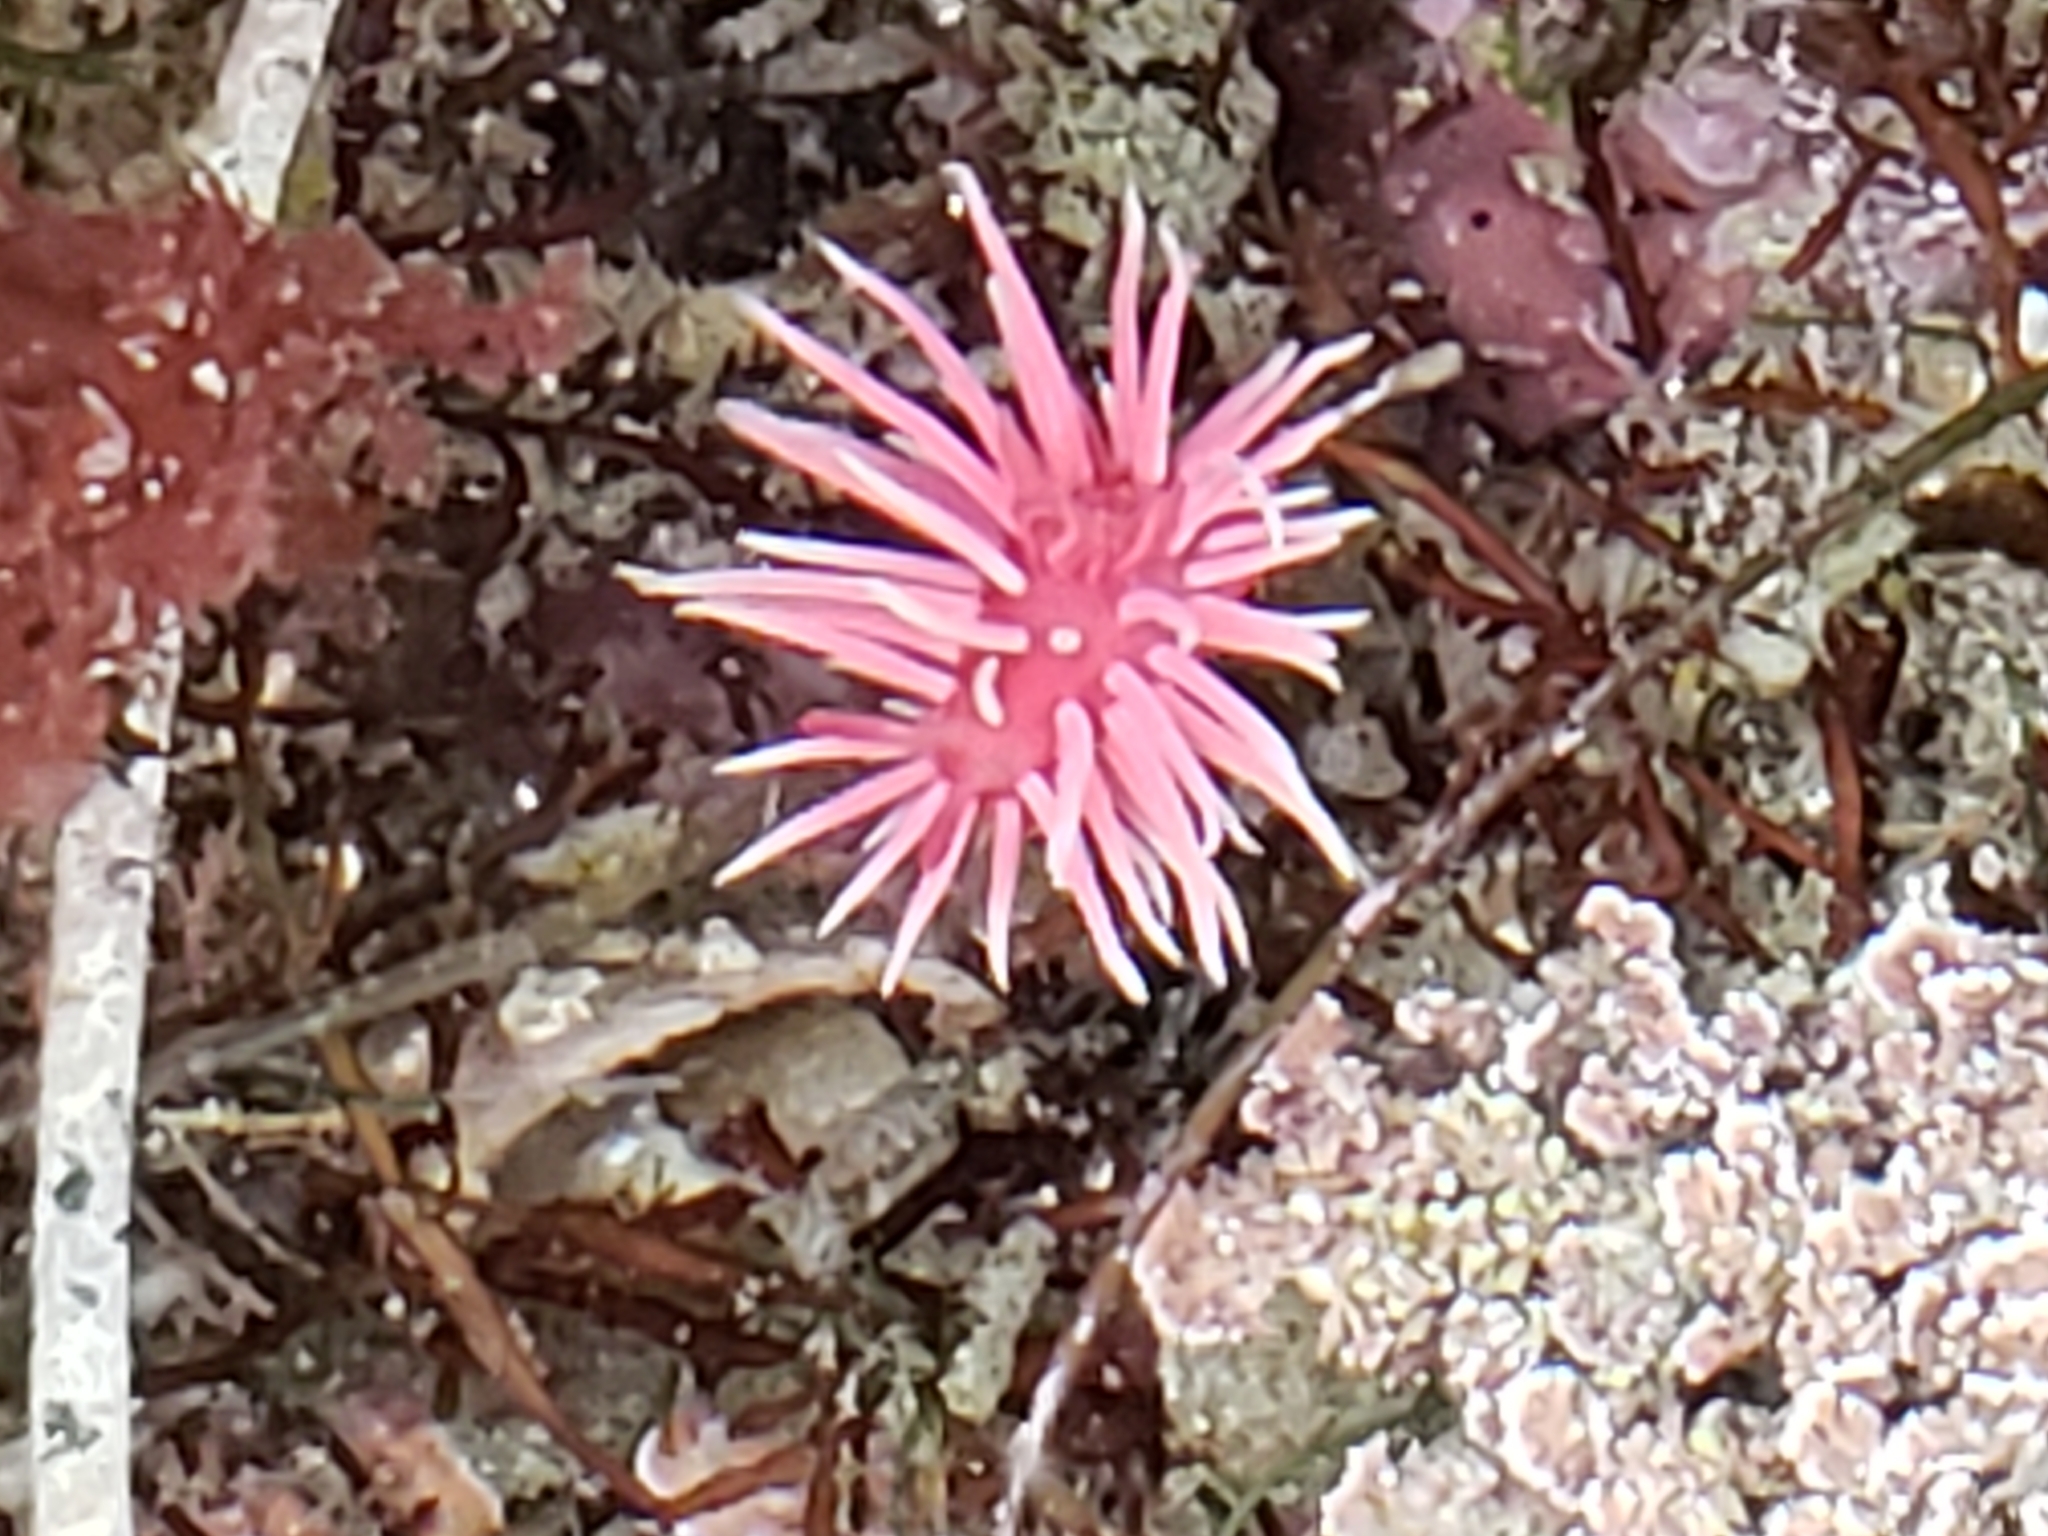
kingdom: Animalia
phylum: Mollusca
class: Gastropoda
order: Nudibranchia
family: Goniodorididae
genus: Okenia
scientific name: Okenia
